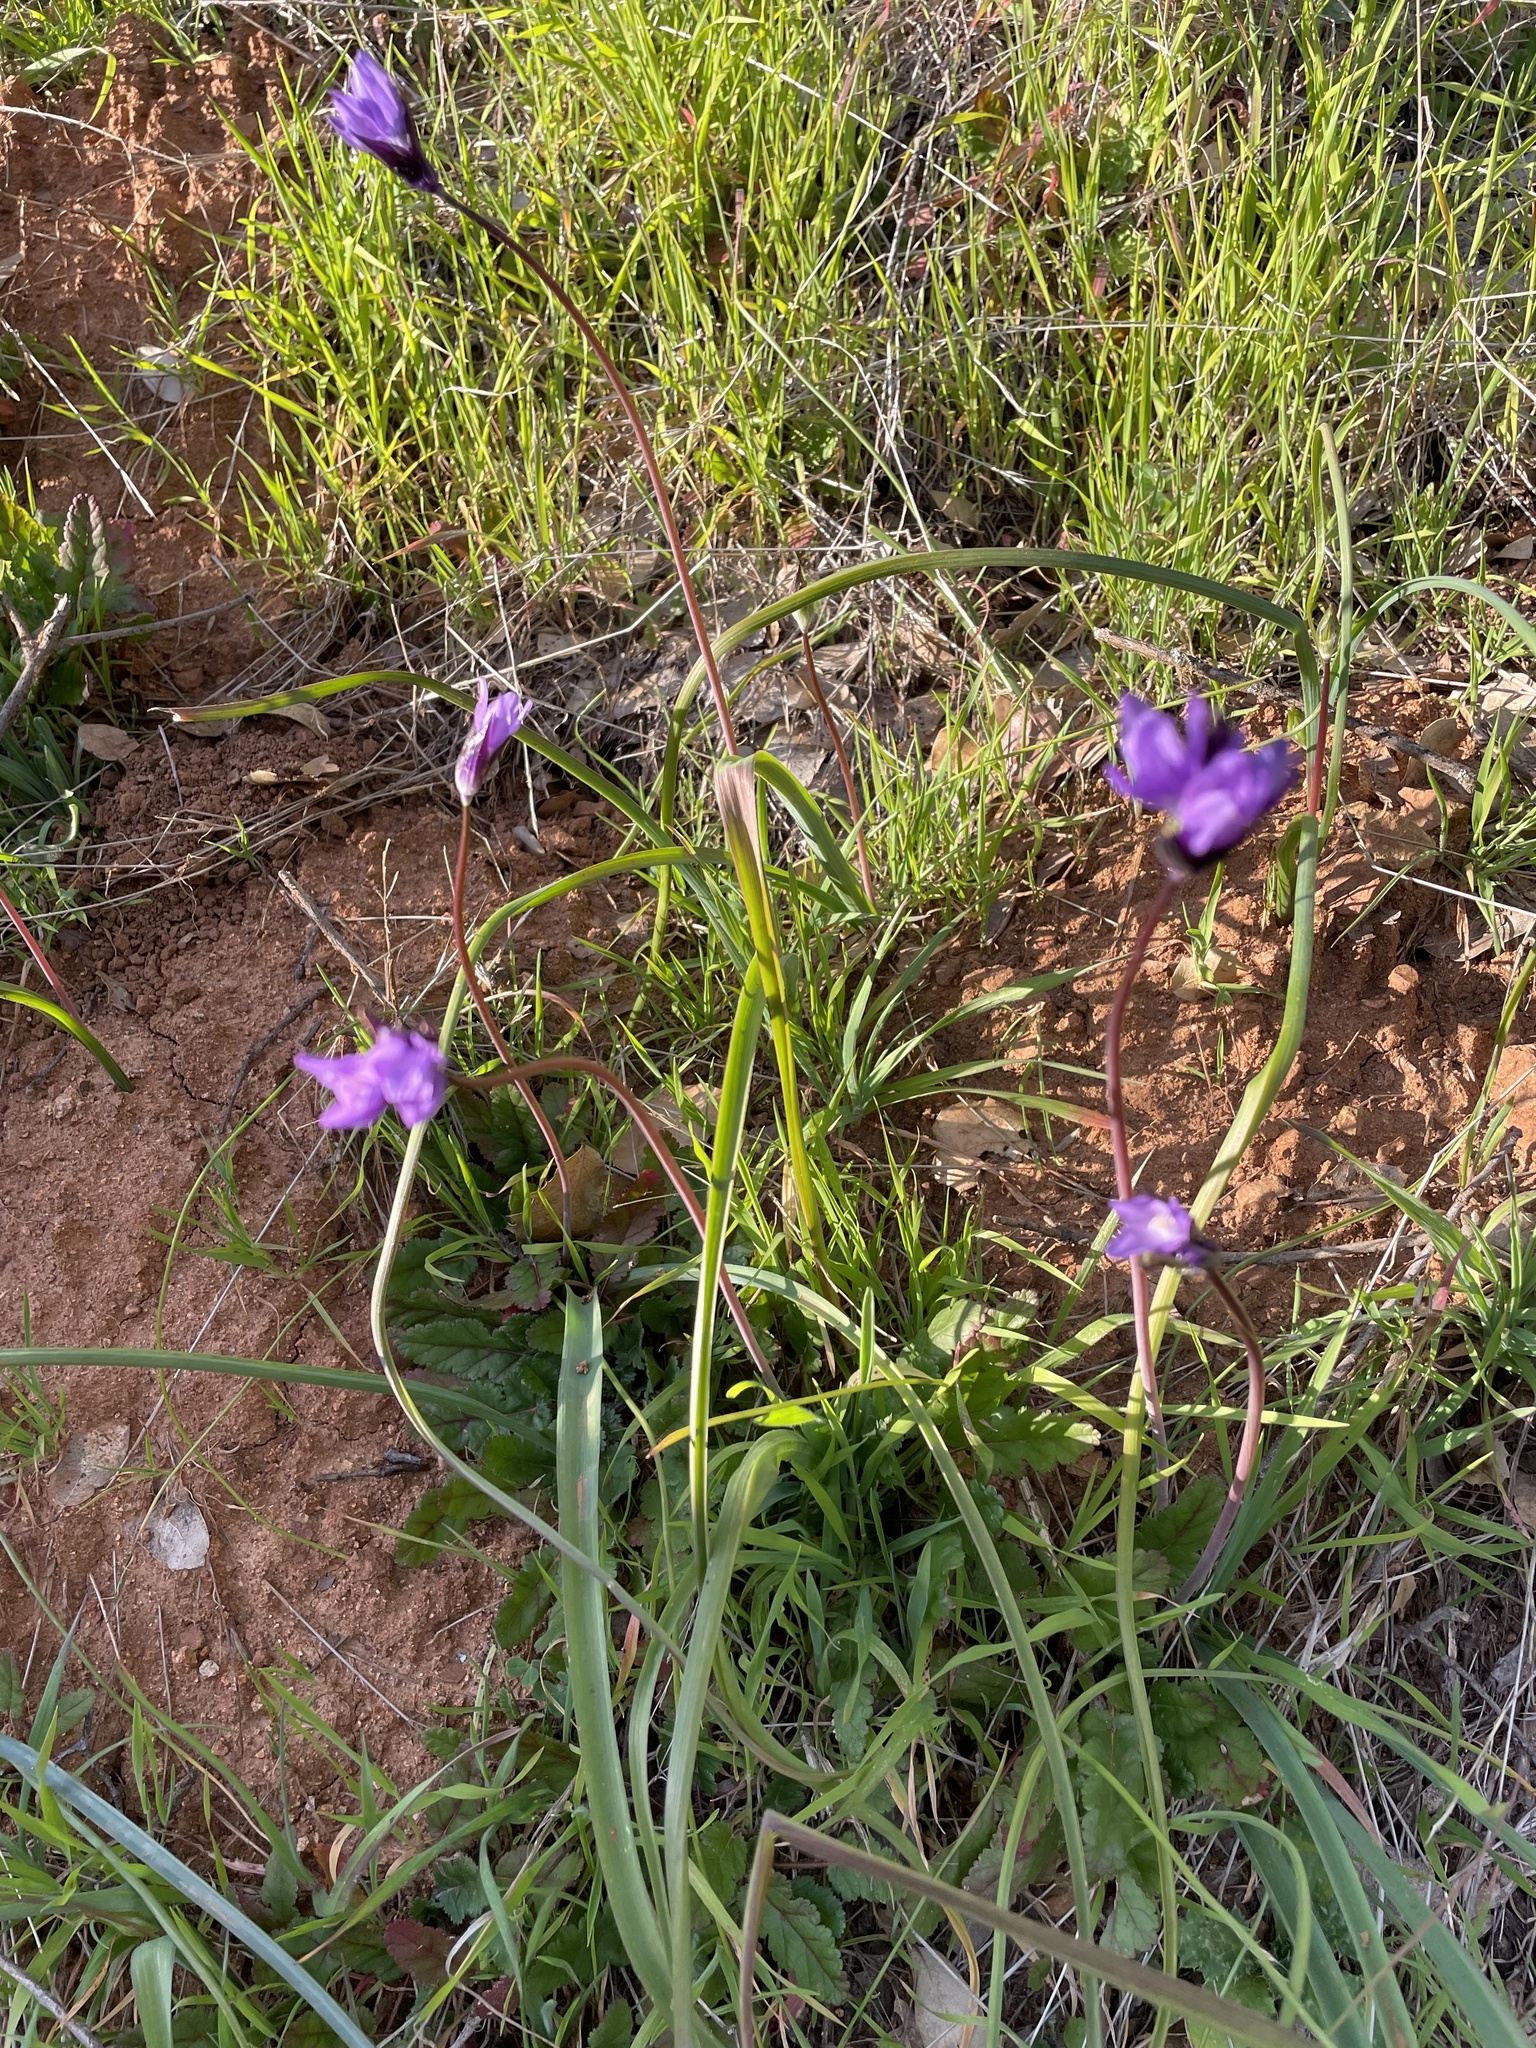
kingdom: Plantae
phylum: Tracheophyta
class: Liliopsida
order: Asparagales
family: Asparagaceae
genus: Dipterostemon
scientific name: Dipterostemon capitatus
